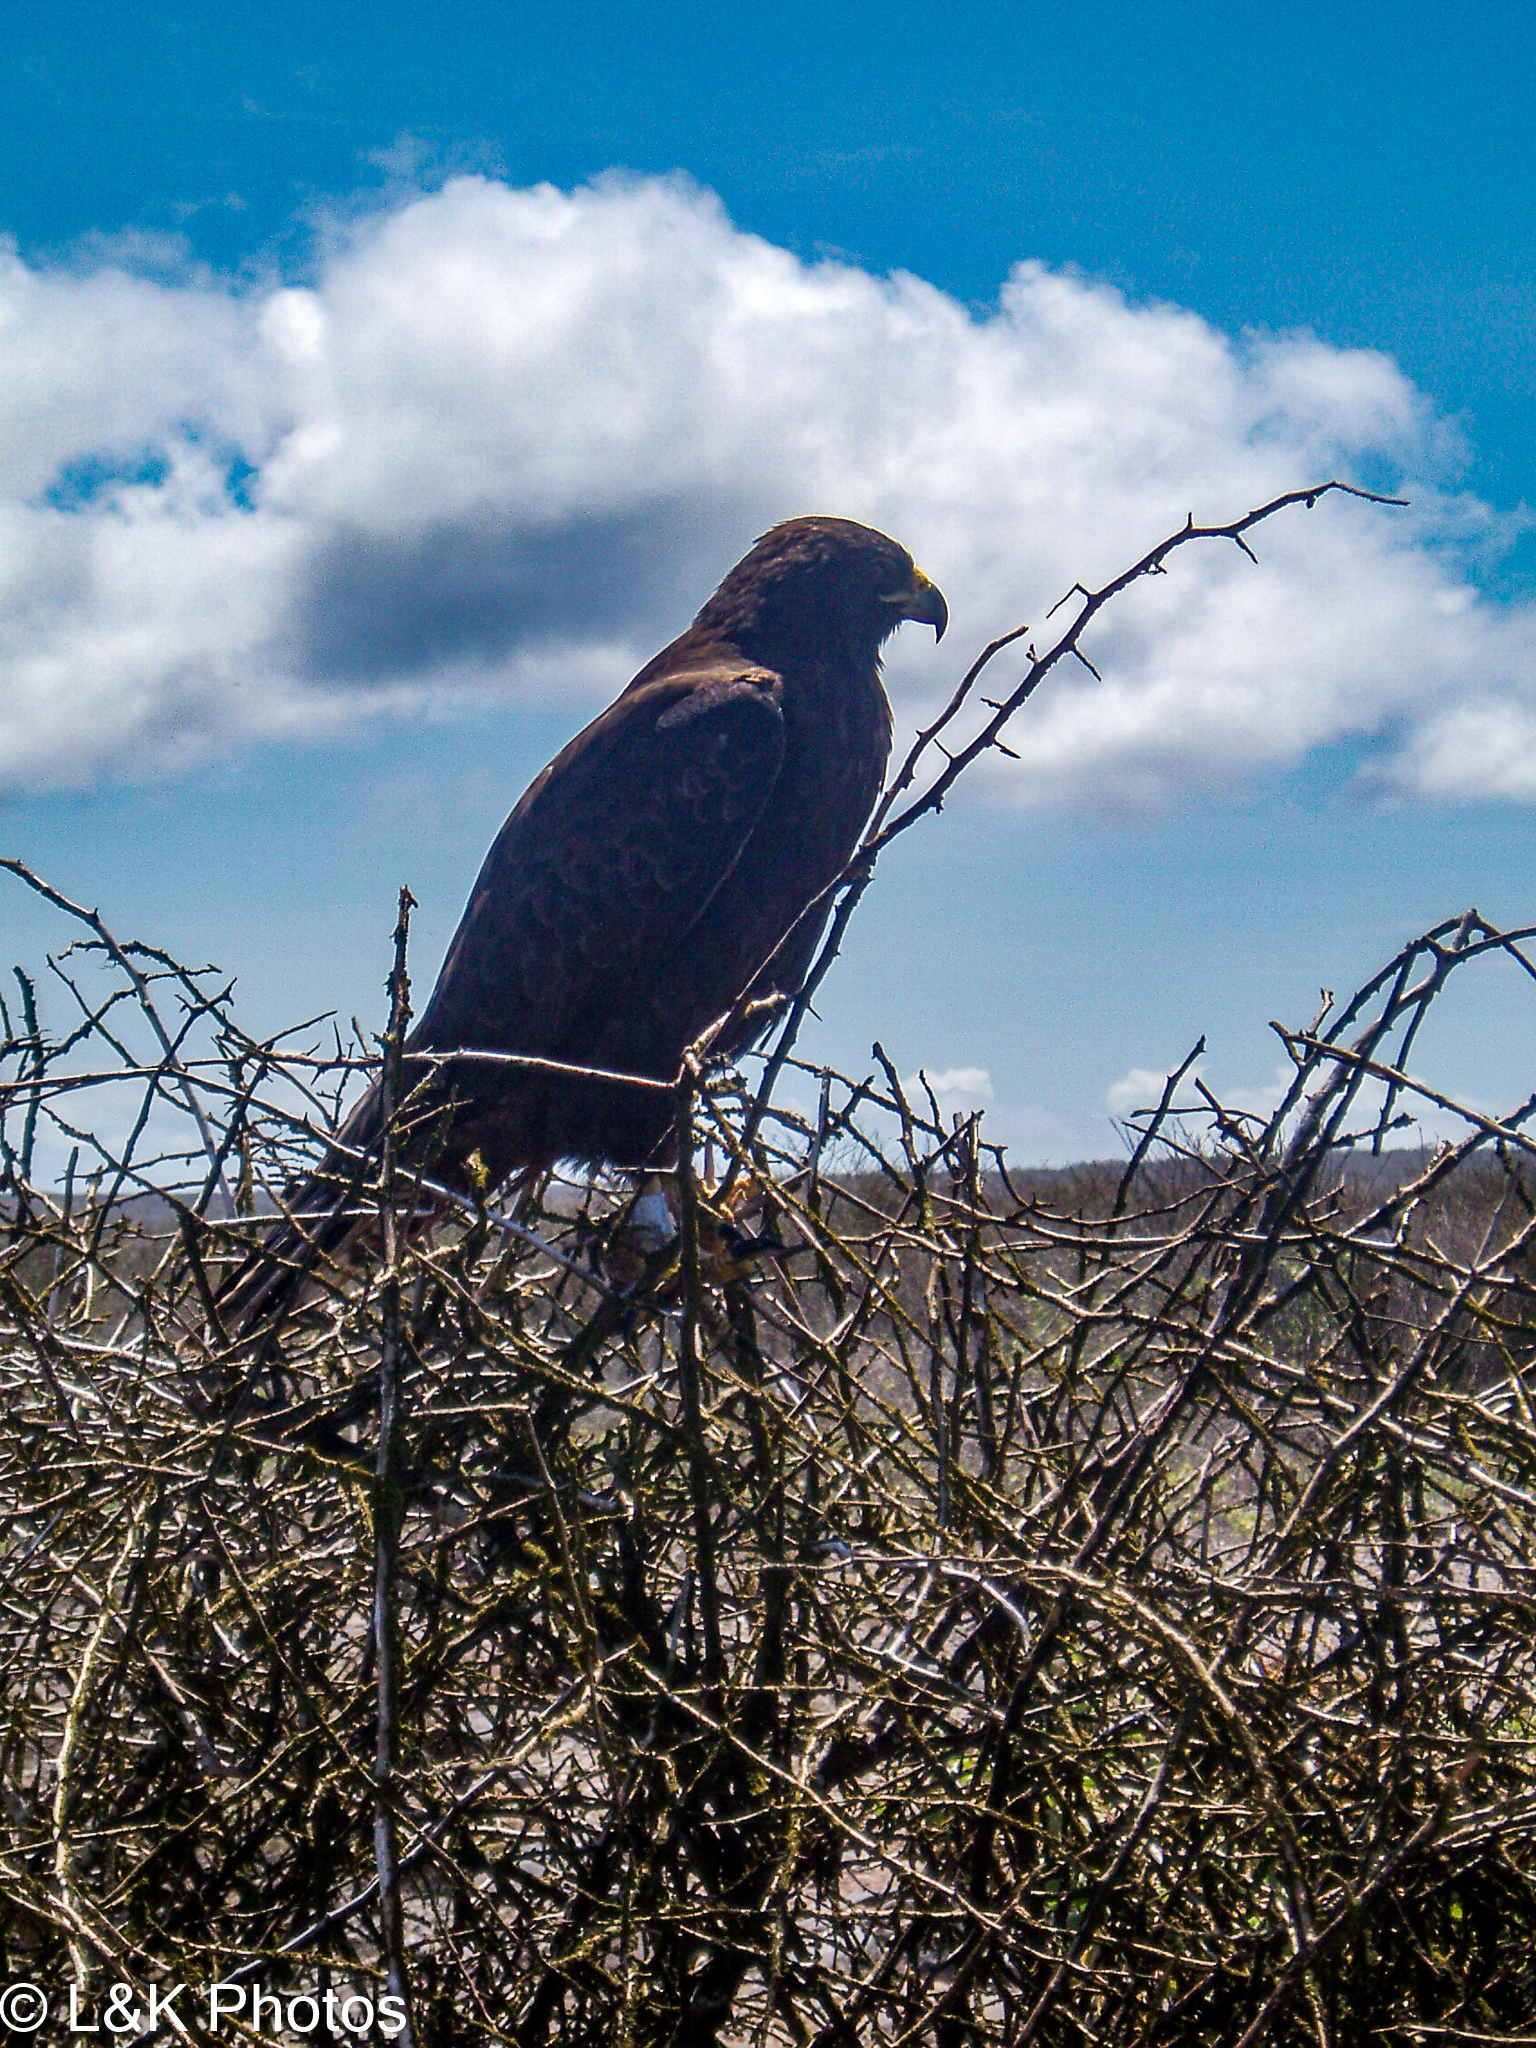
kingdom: Animalia
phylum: Chordata
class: Aves
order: Accipitriformes
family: Accipitridae
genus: Buteo
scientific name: Buteo galapagoensis
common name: Galapagos hawk
